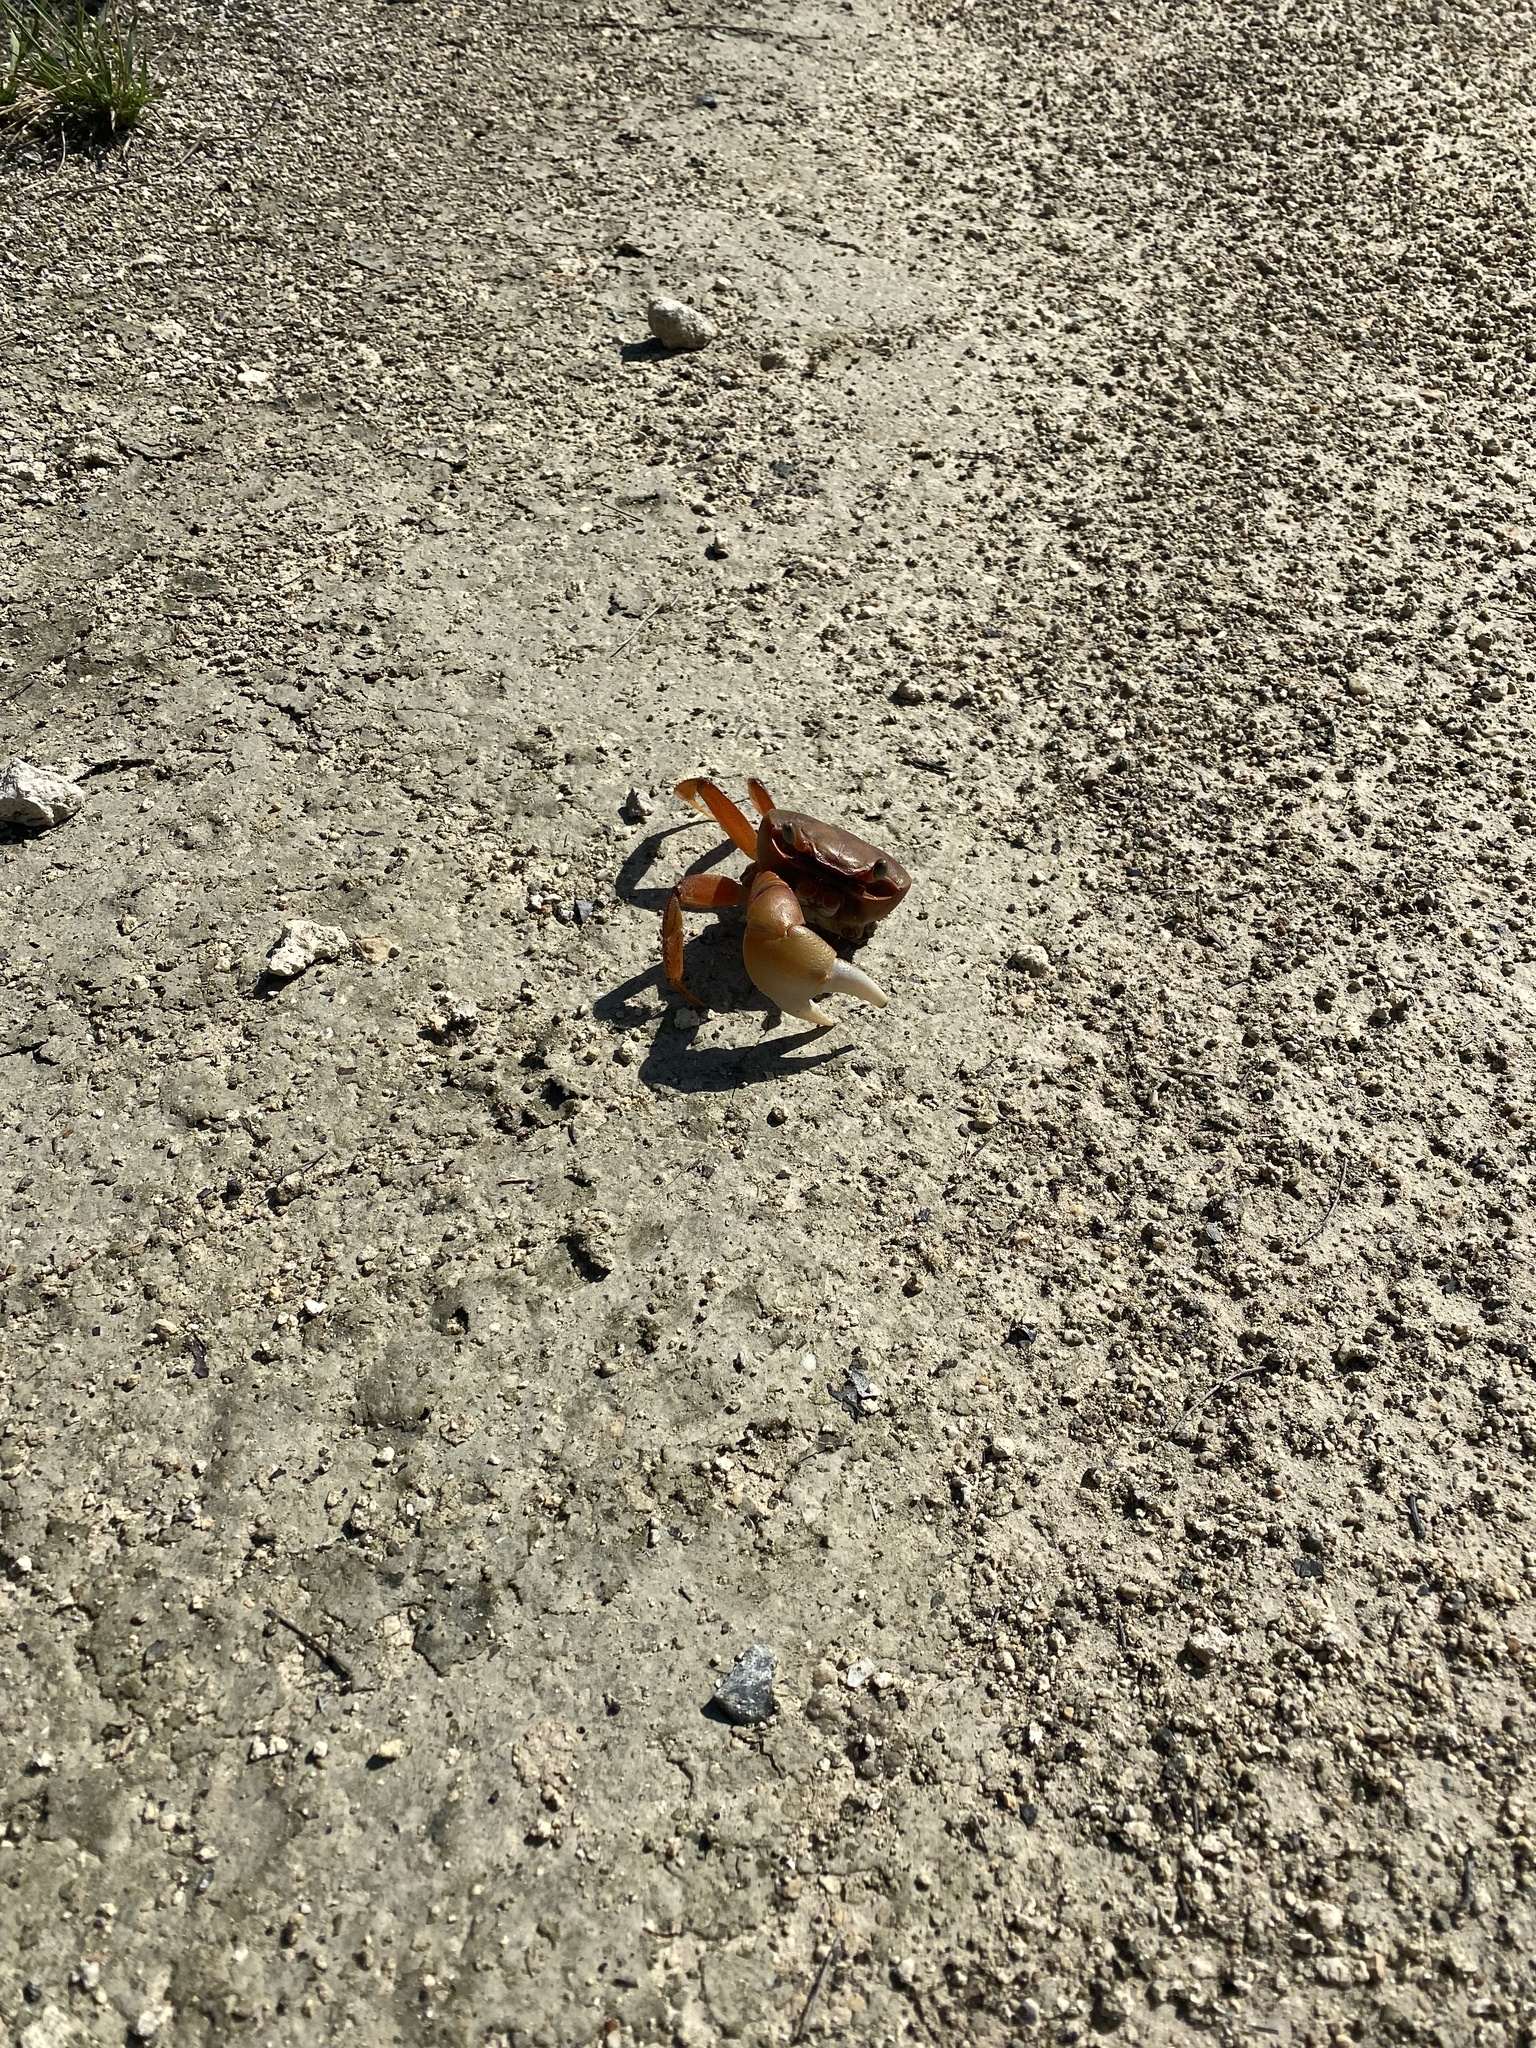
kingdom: Animalia
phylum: Arthropoda
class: Malacostraca
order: Decapoda
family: Gecarcinidae
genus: Cardisoma
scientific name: Cardisoma guanhumi
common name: Great land crab
